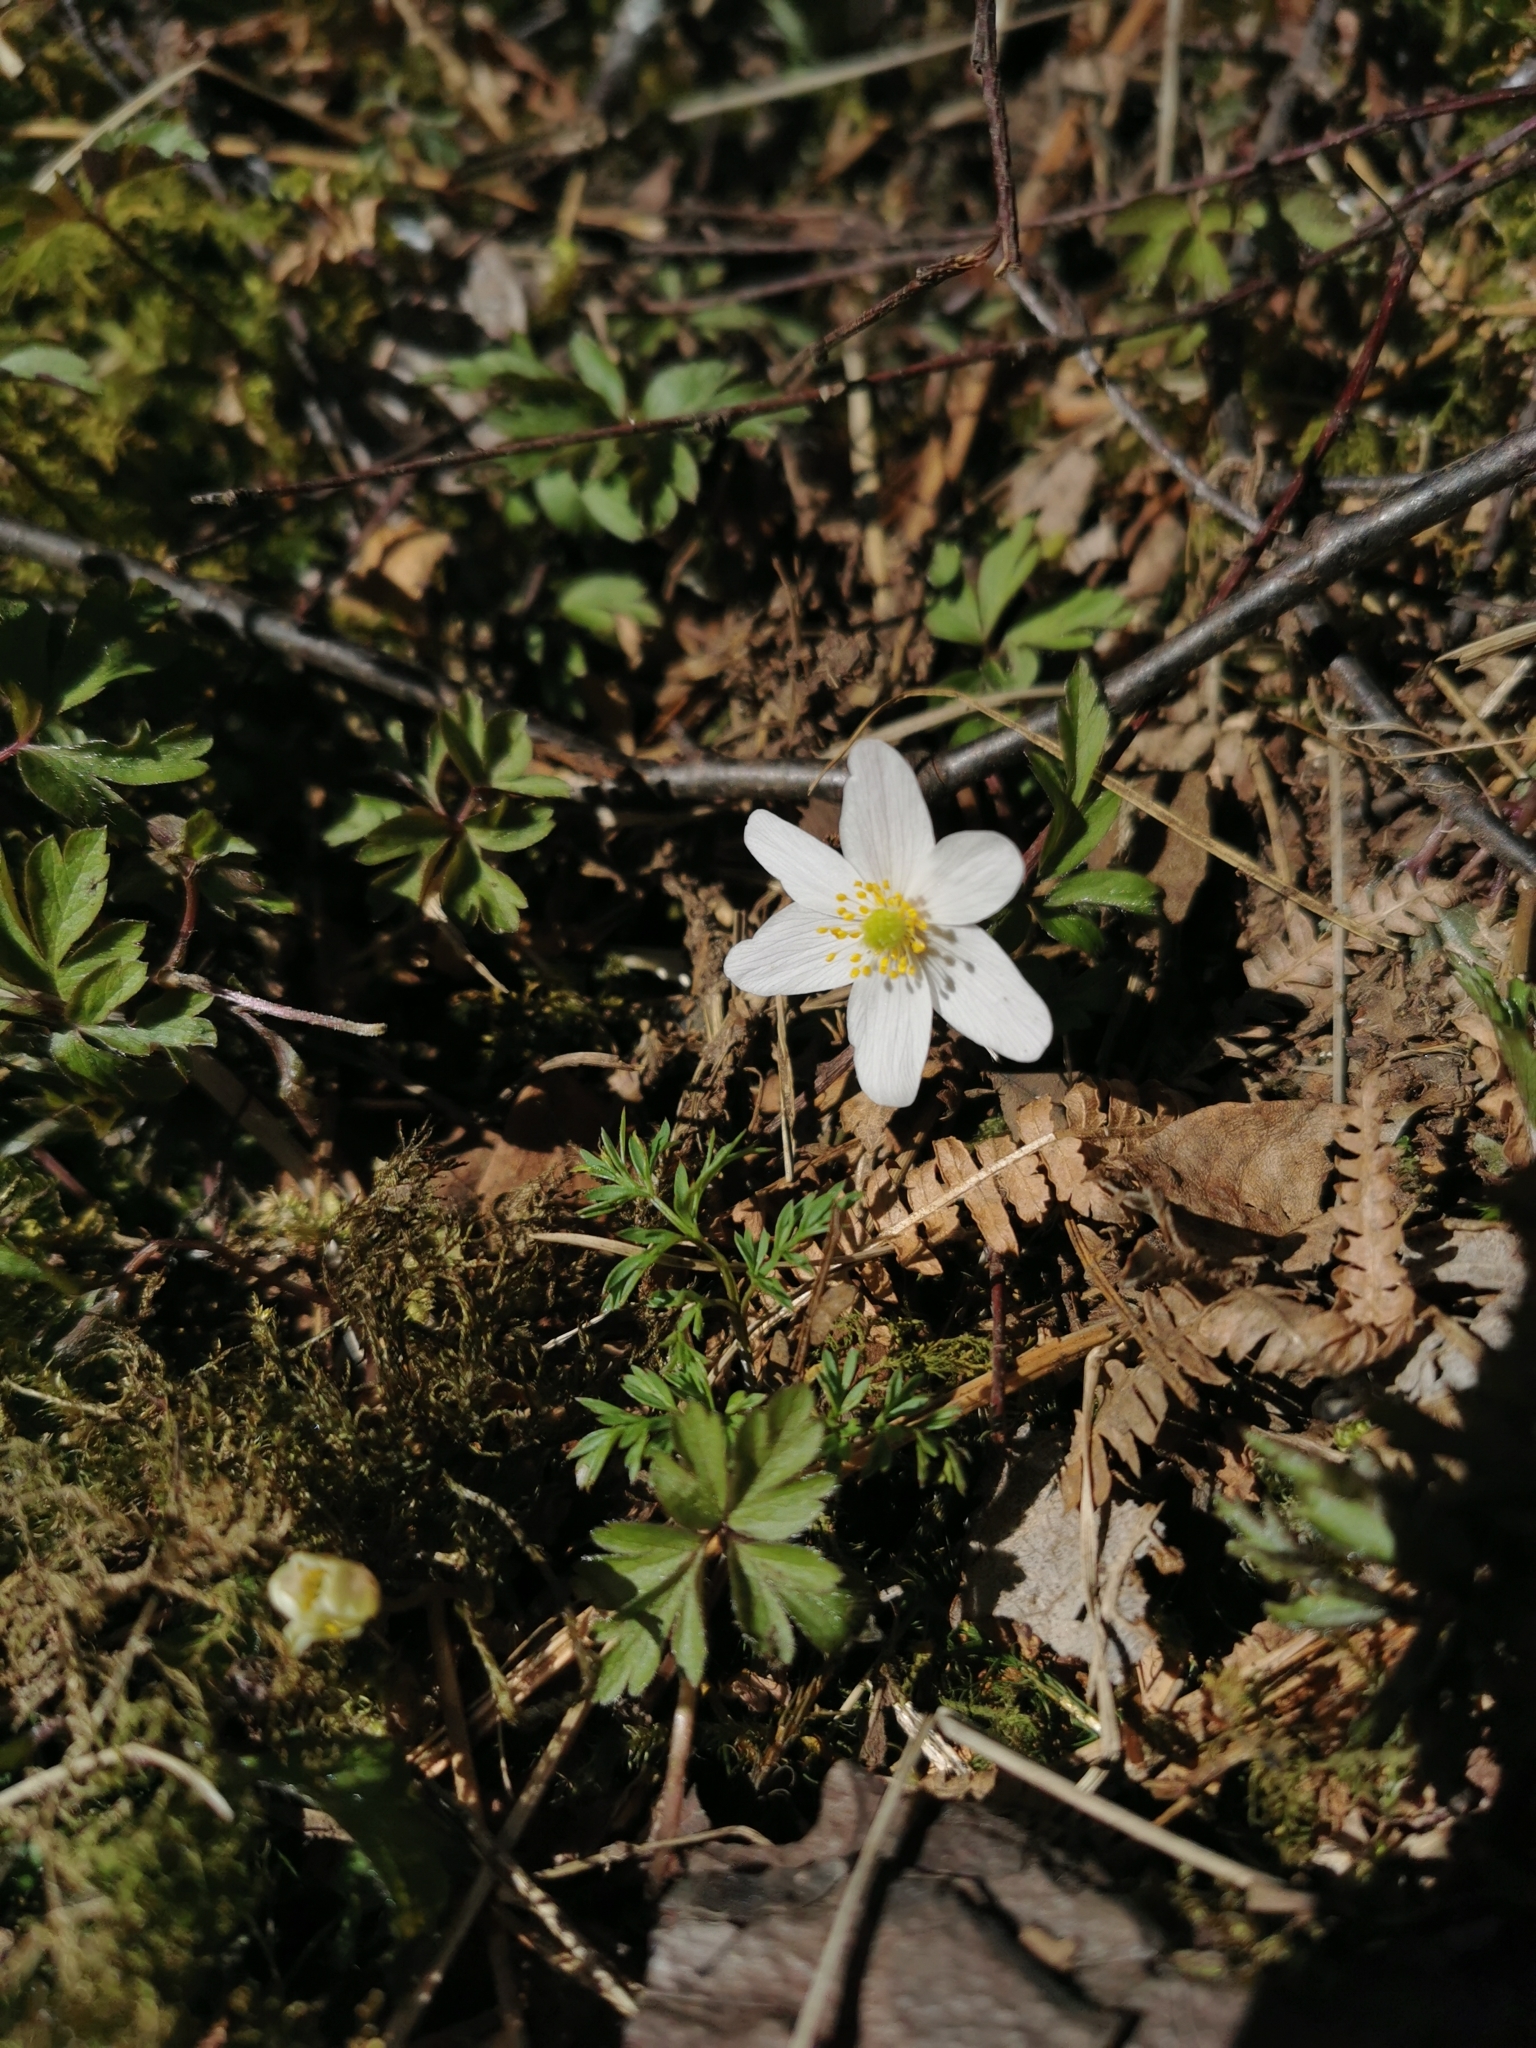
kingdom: Plantae
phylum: Tracheophyta
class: Magnoliopsida
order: Ranunculales
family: Ranunculaceae
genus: Anemone
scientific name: Anemone nemorosa
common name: Wood anemone
